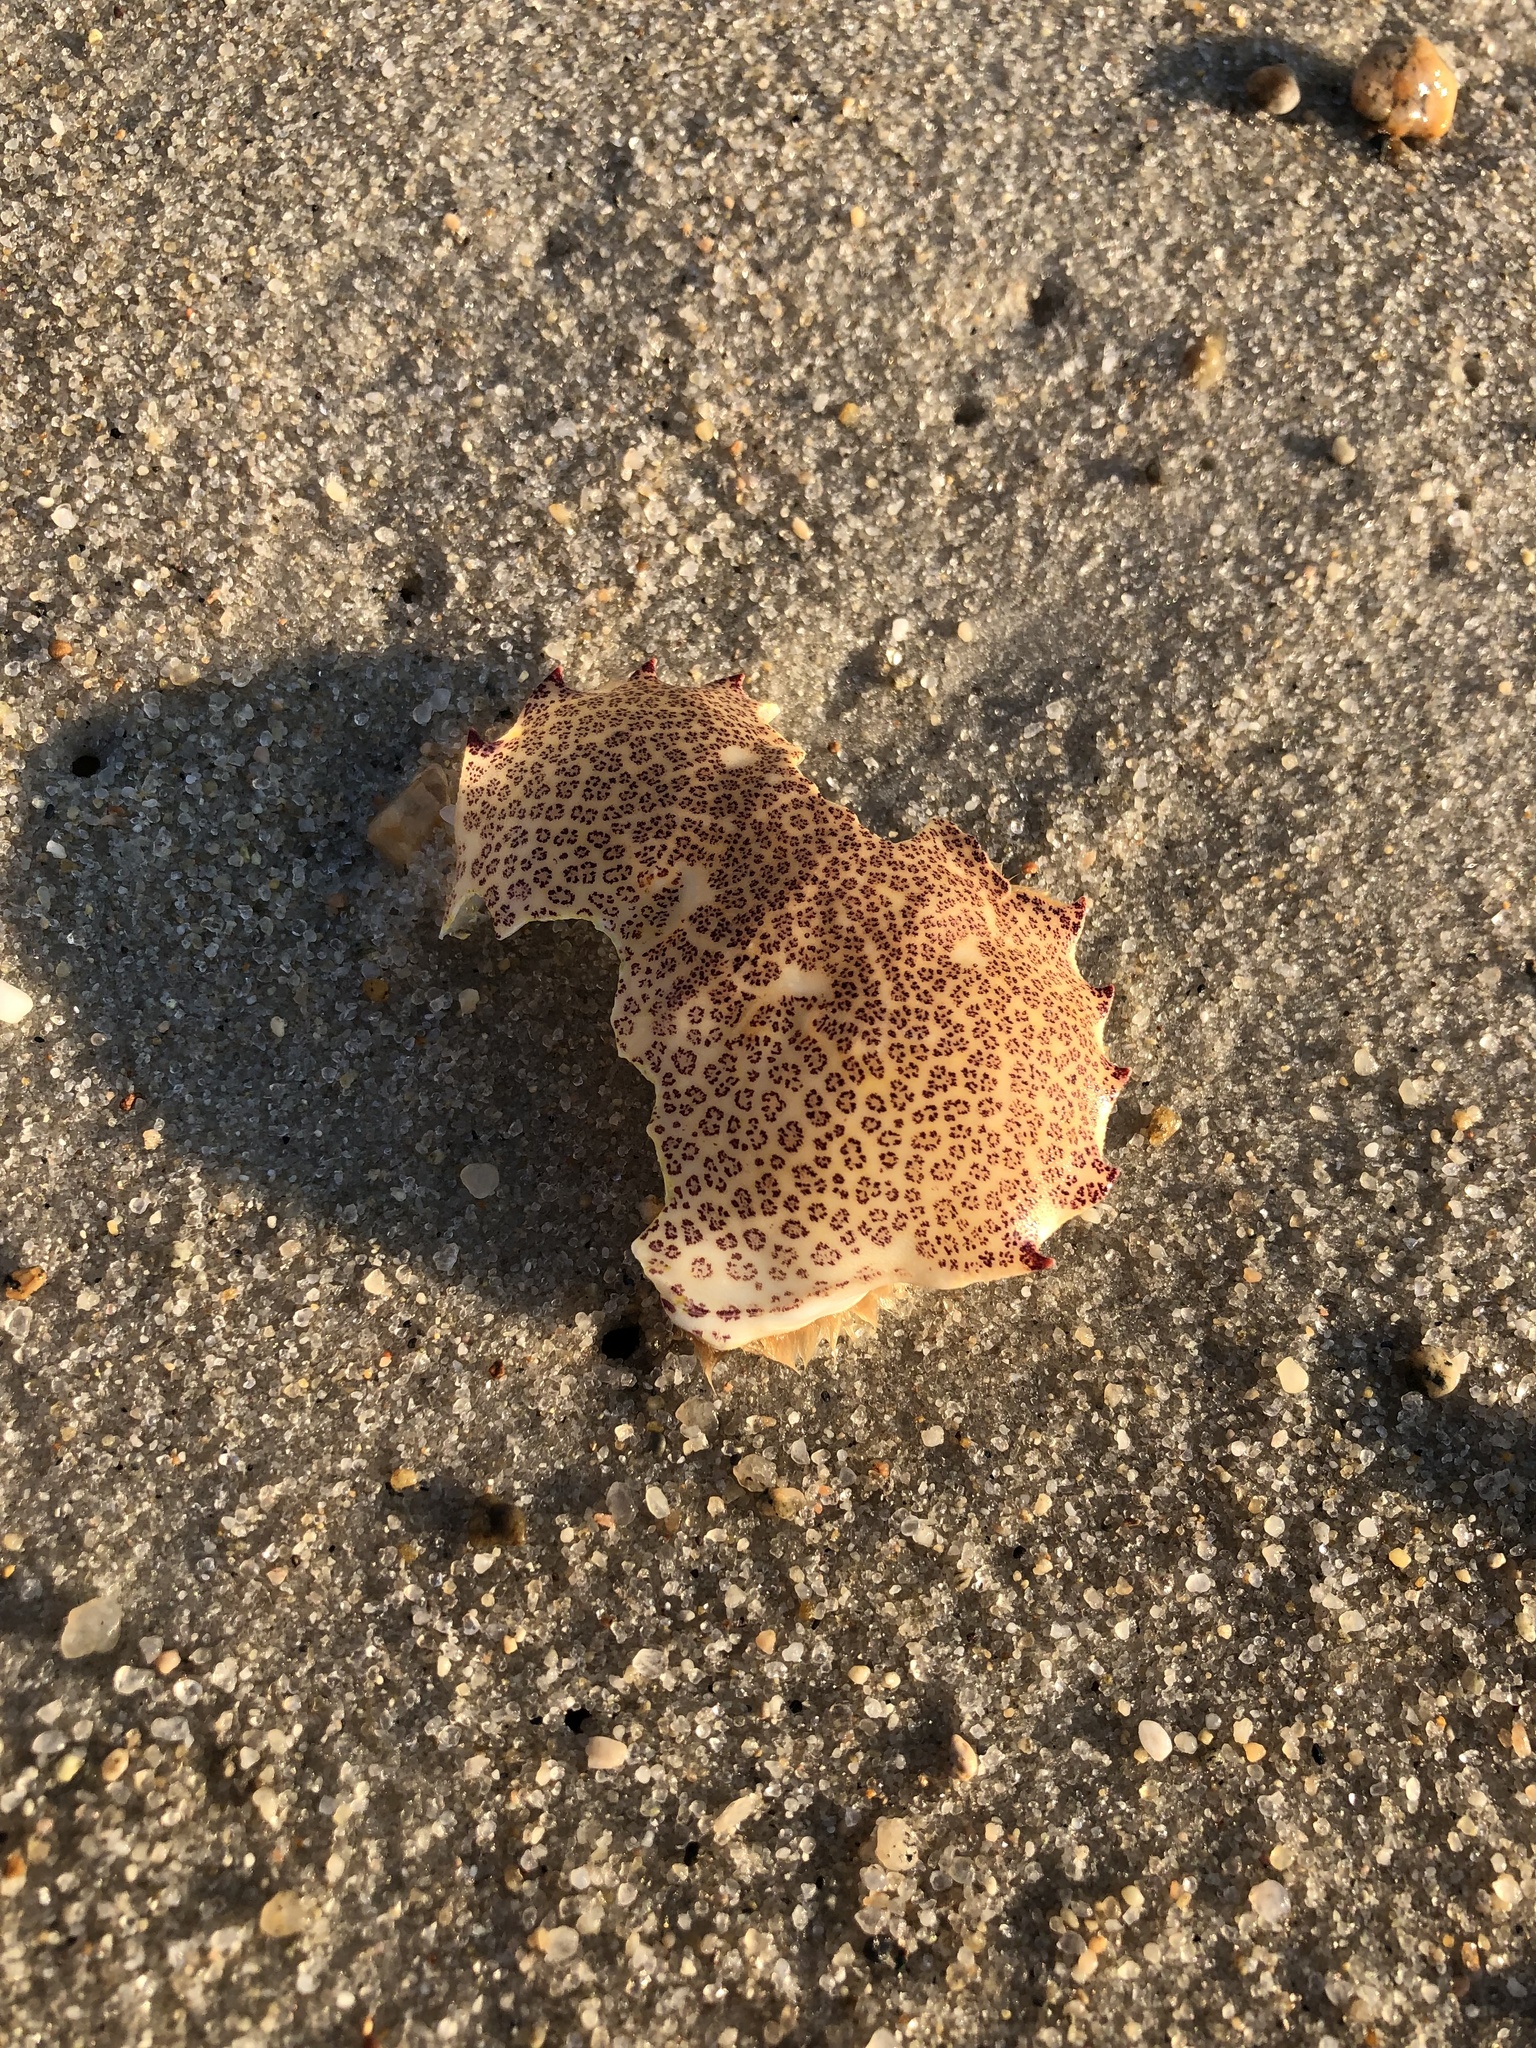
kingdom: Animalia
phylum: Arthropoda
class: Malacostraca
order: Decapoda
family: Ovalipidae
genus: Ovalipes
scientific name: Ovalipes ocellatus
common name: Lady crab
